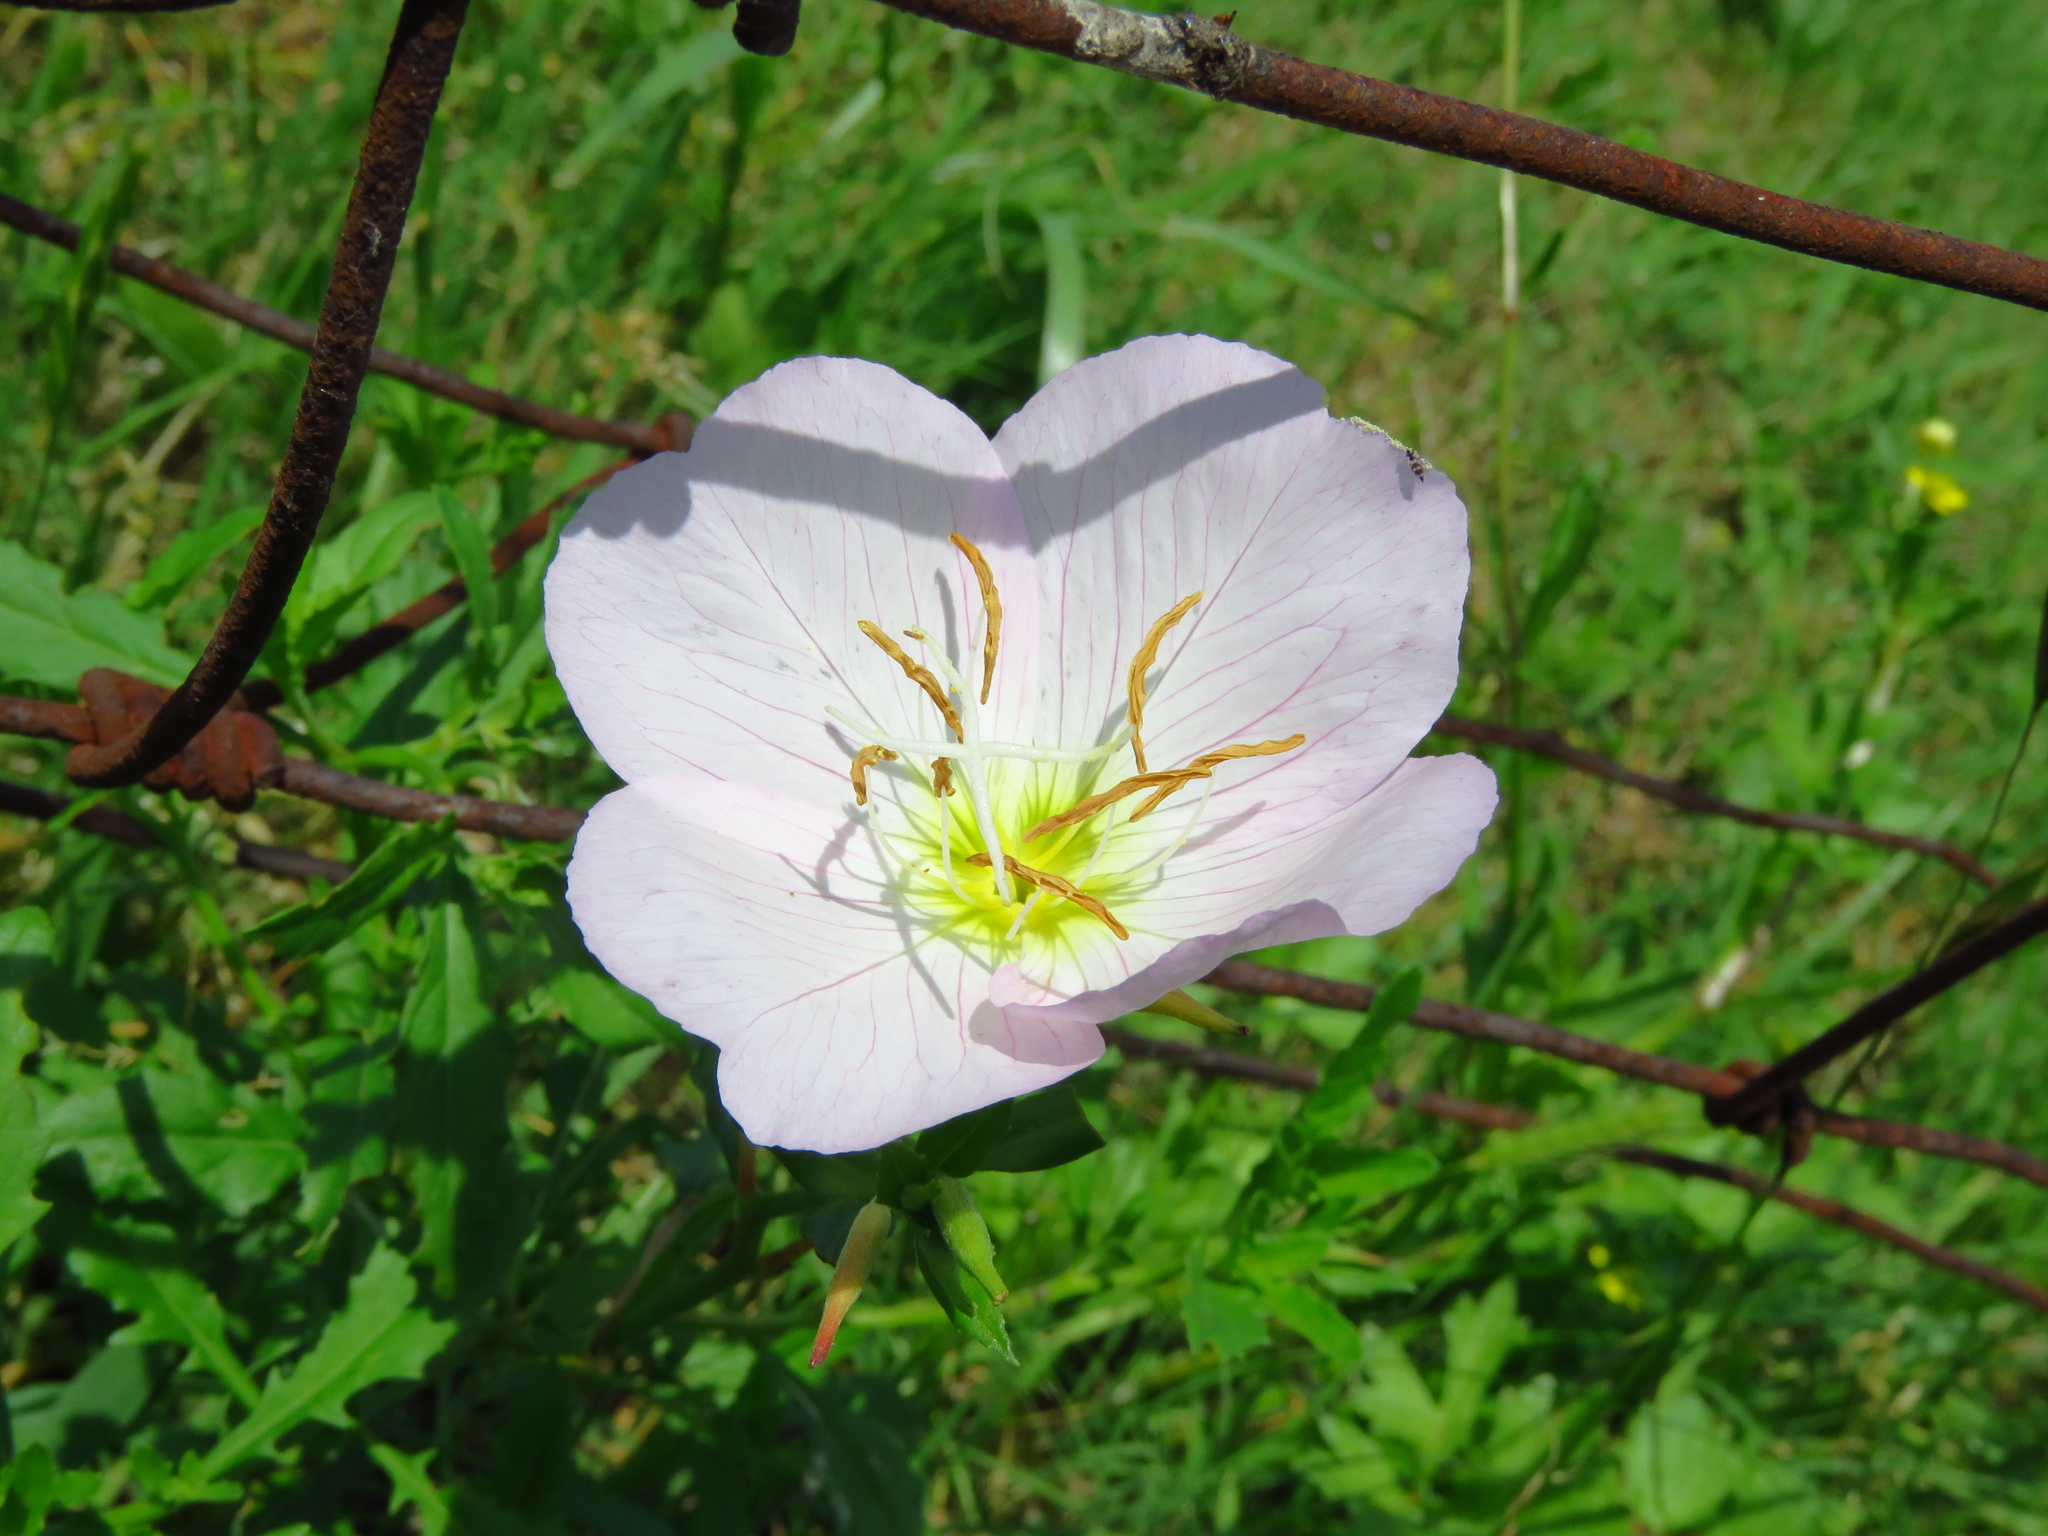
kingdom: Plantae
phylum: Tracheophyta
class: Magnoliopsida
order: Myrtales
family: Onagraceae
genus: Oenothera
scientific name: Oenothera speciosa
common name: White evening-primrose
